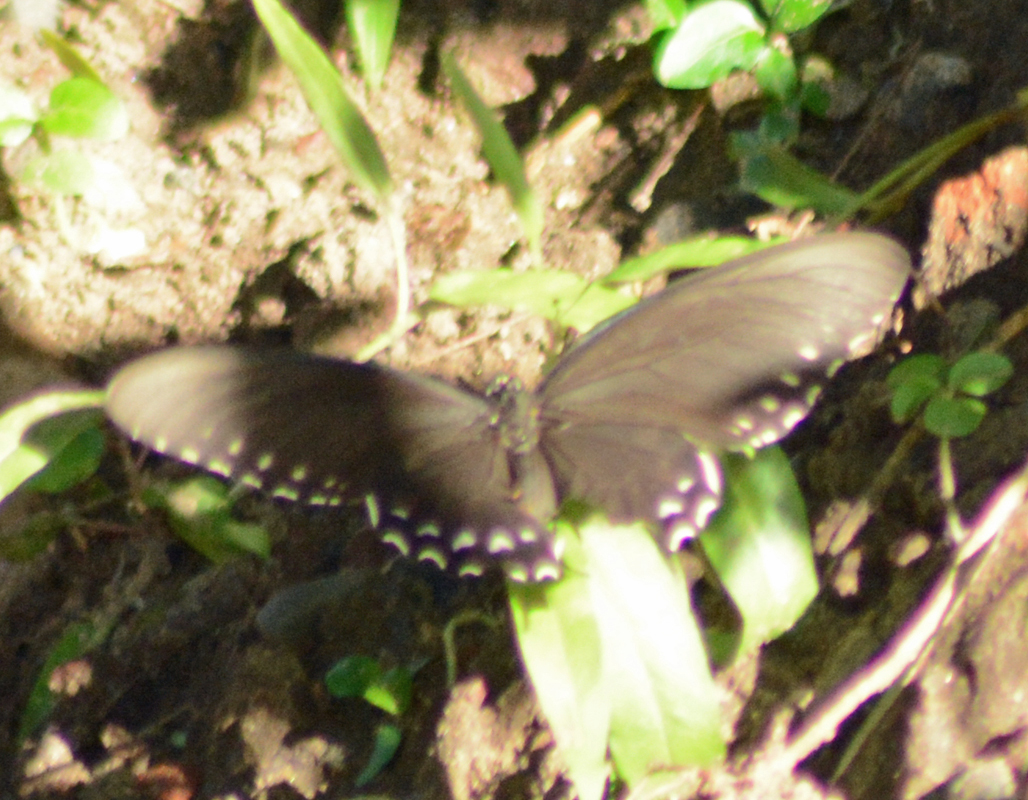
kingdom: Animalia
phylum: Arthropoda
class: Insecta
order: Lepidoptera
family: Papilionidae
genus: Battus
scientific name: Battus philenor
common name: Pipevine swallowtail
